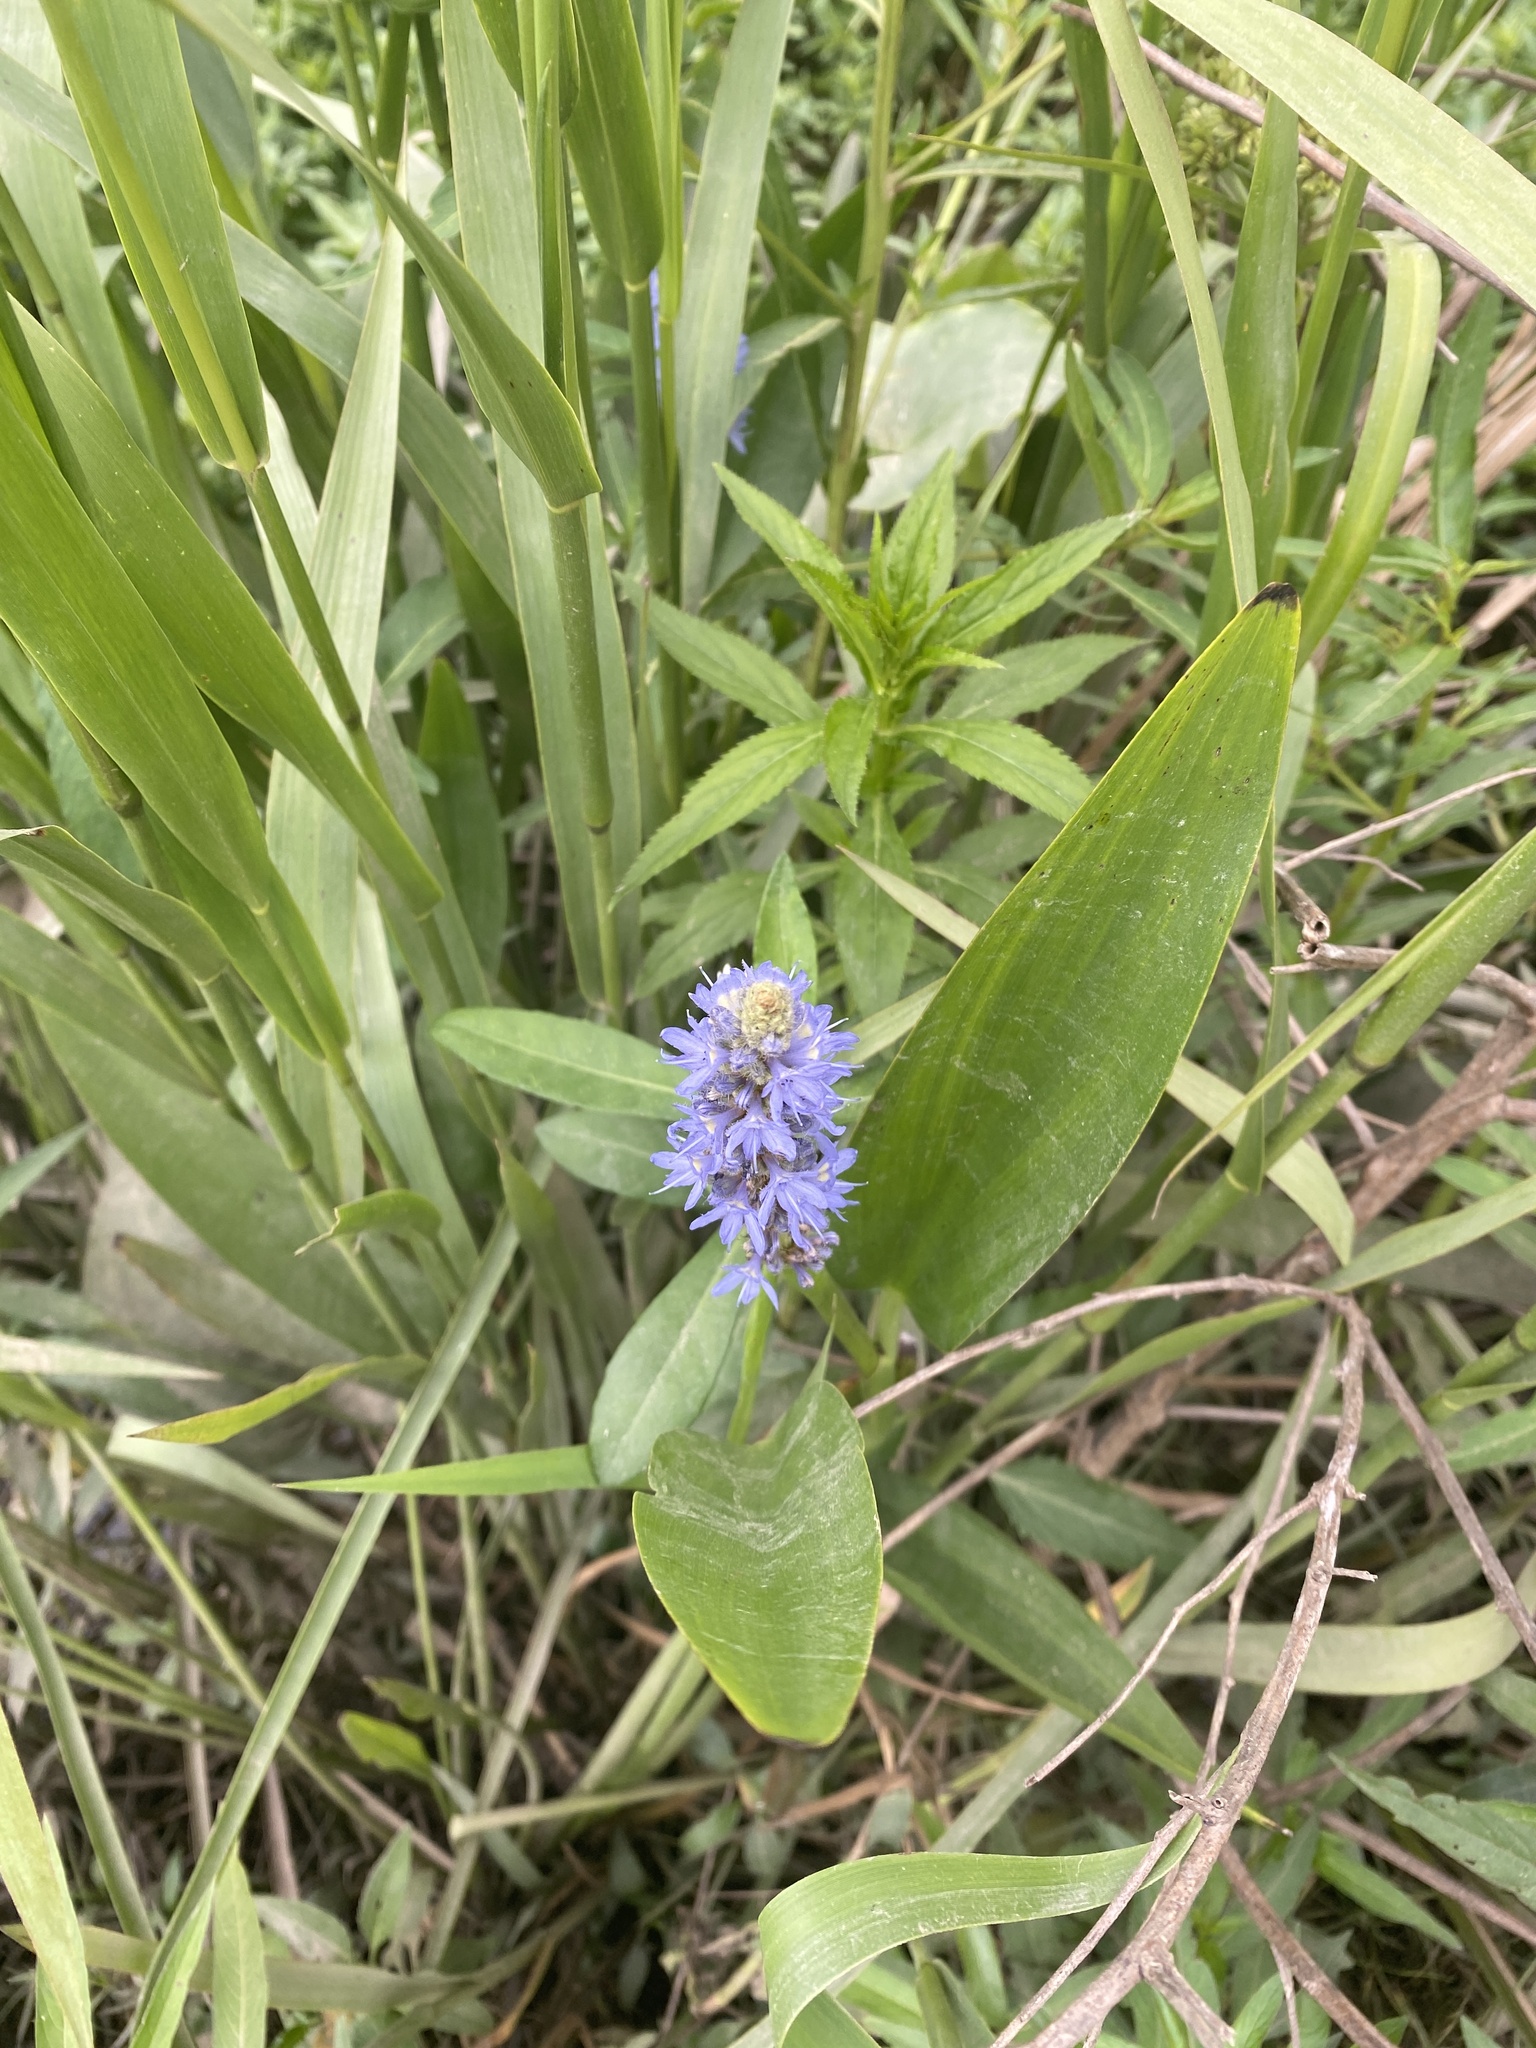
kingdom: Plantae
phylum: Tracheophyta
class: Liliopsida
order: Commelinales
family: Pontederiaceae
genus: Pontederia
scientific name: Pontederia cordata
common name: Pickerelweed
